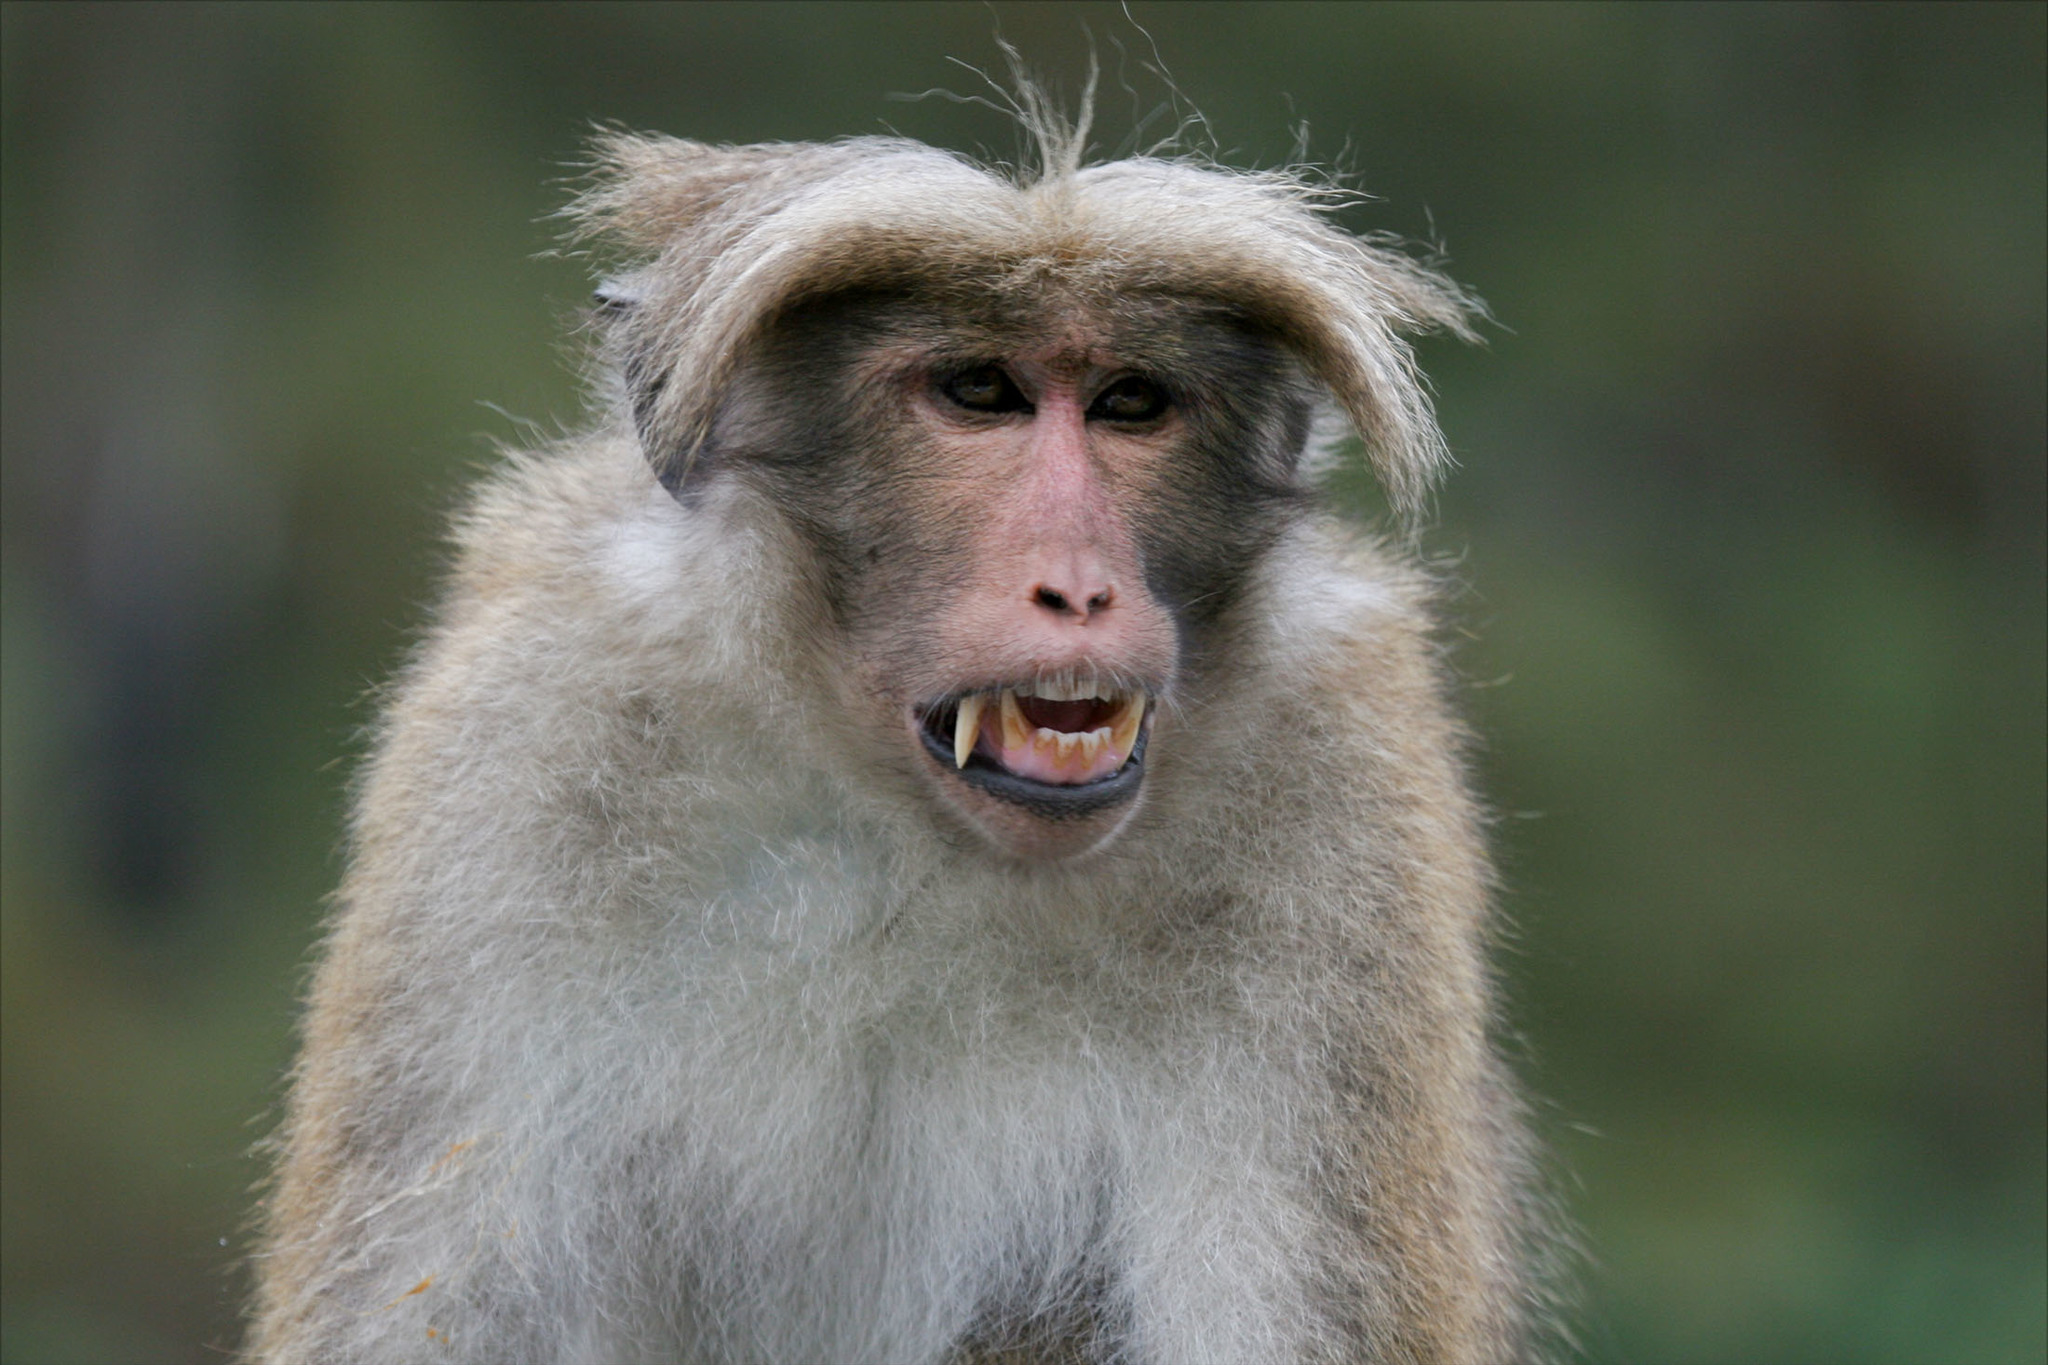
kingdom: Animalia
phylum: Chordata
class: Mammalia
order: Primates
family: Cercopithecidae
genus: Macaca
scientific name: Macaca sinica
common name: Toque macaque
